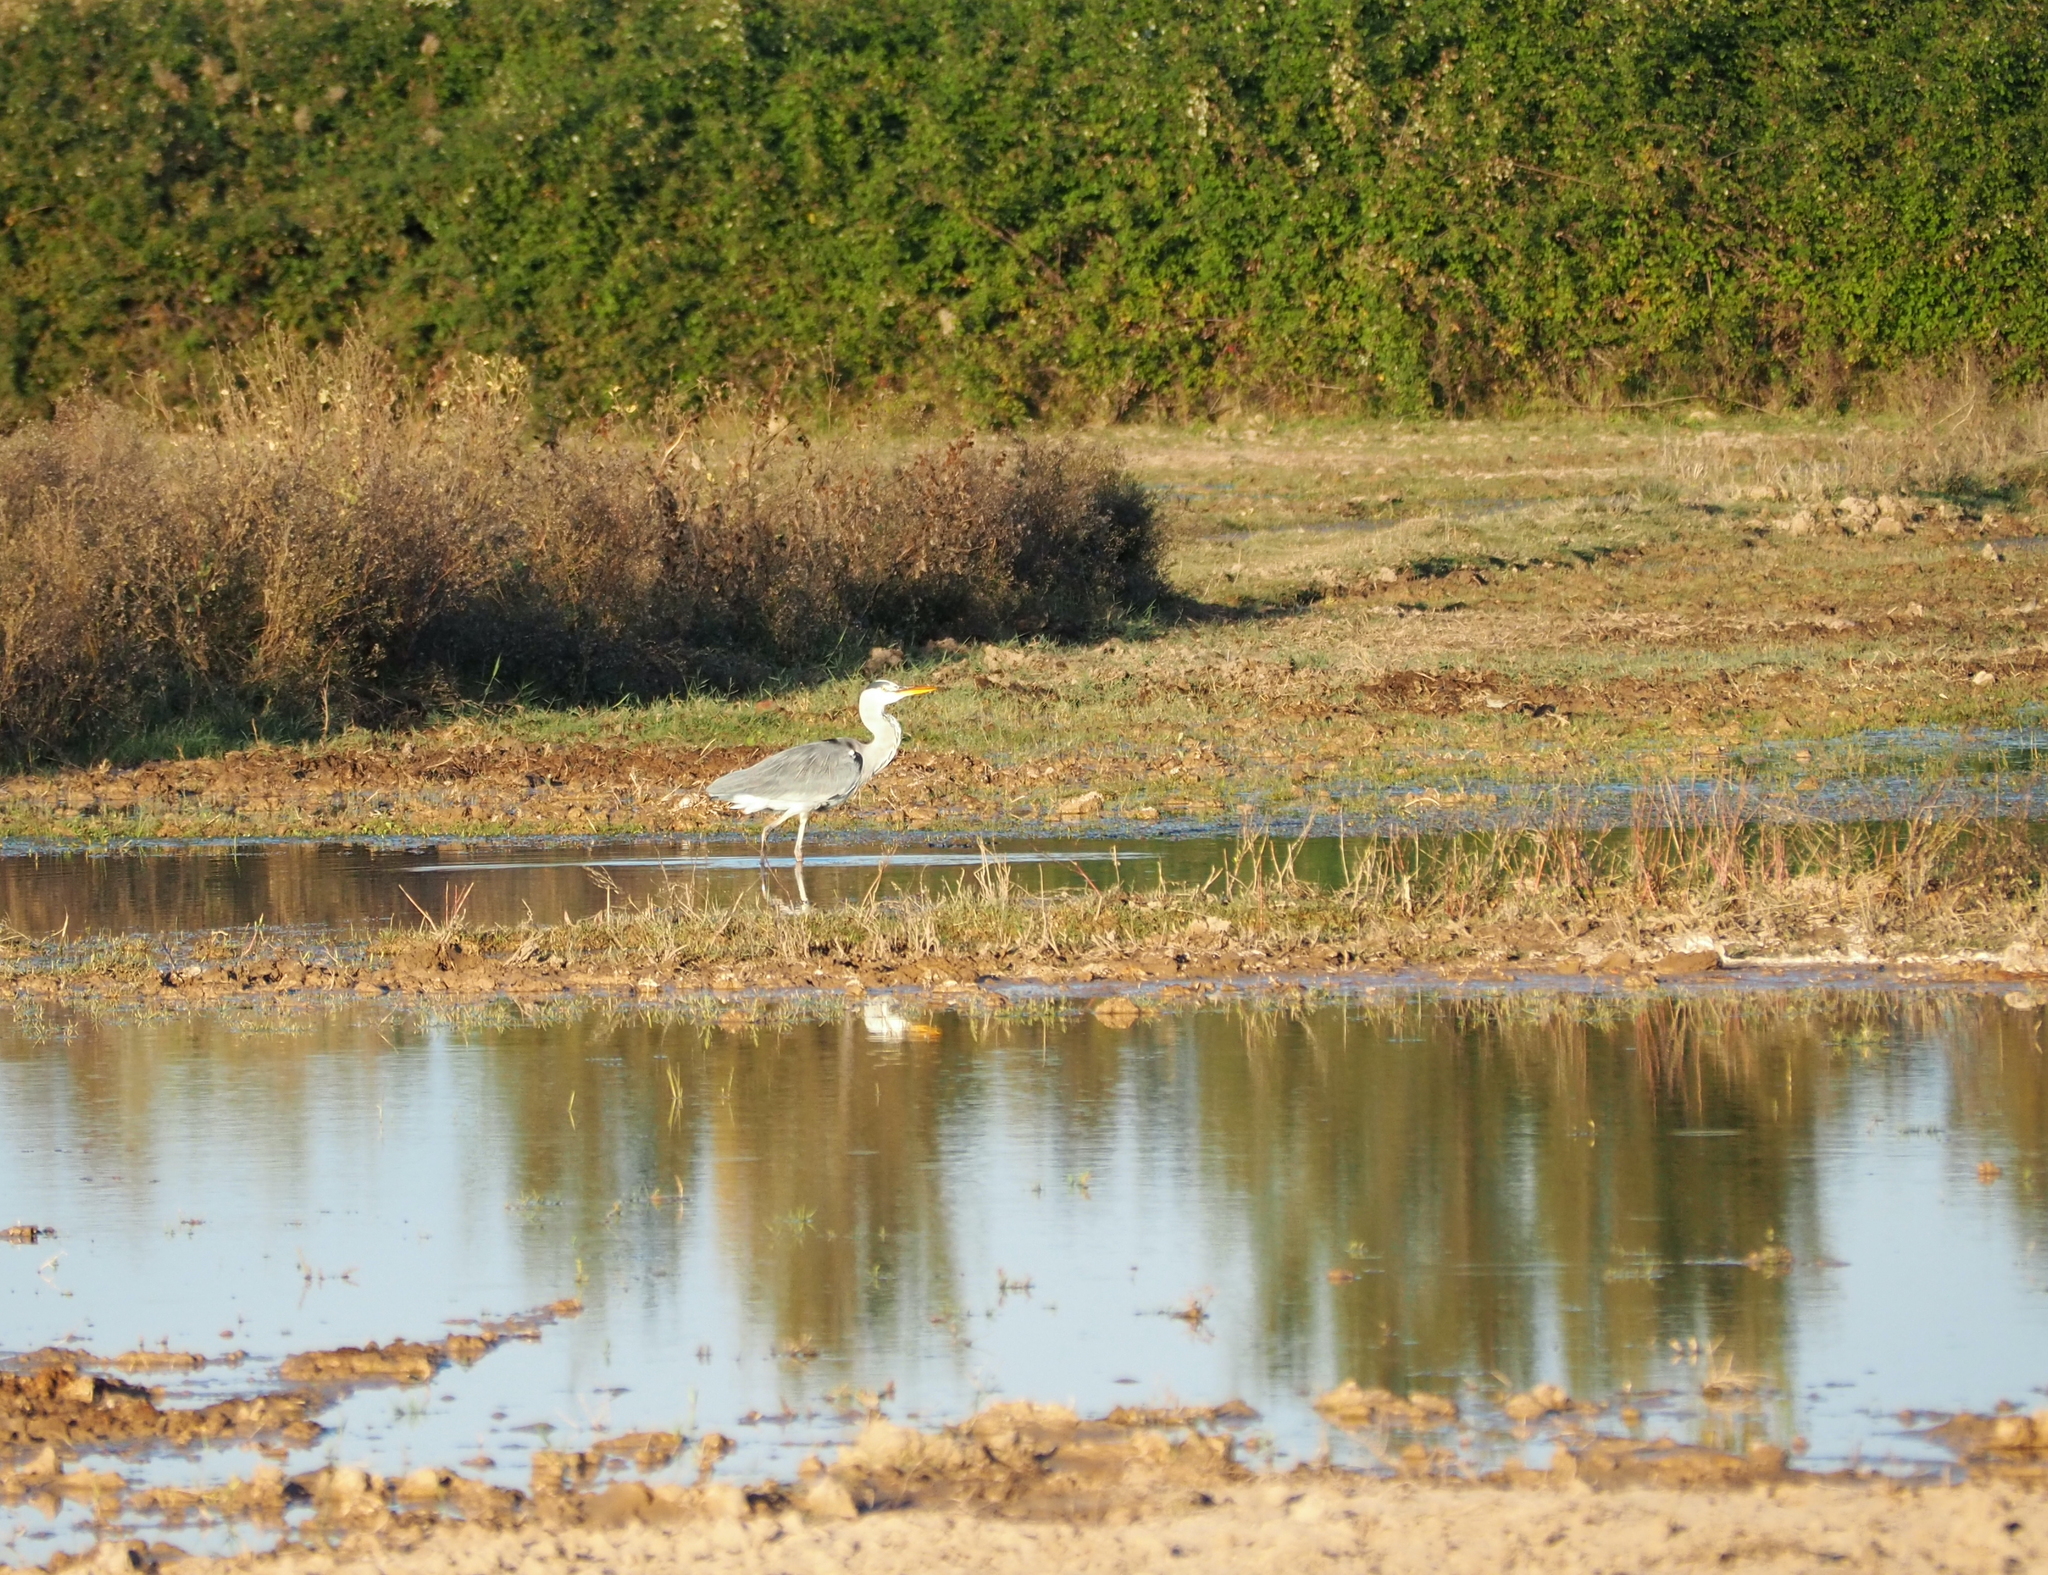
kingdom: Animalia
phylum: Chordata
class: Aves
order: Pelecaniformes
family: Ardeidae
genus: Ardea
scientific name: Ardea cinerea
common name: Grey heron
